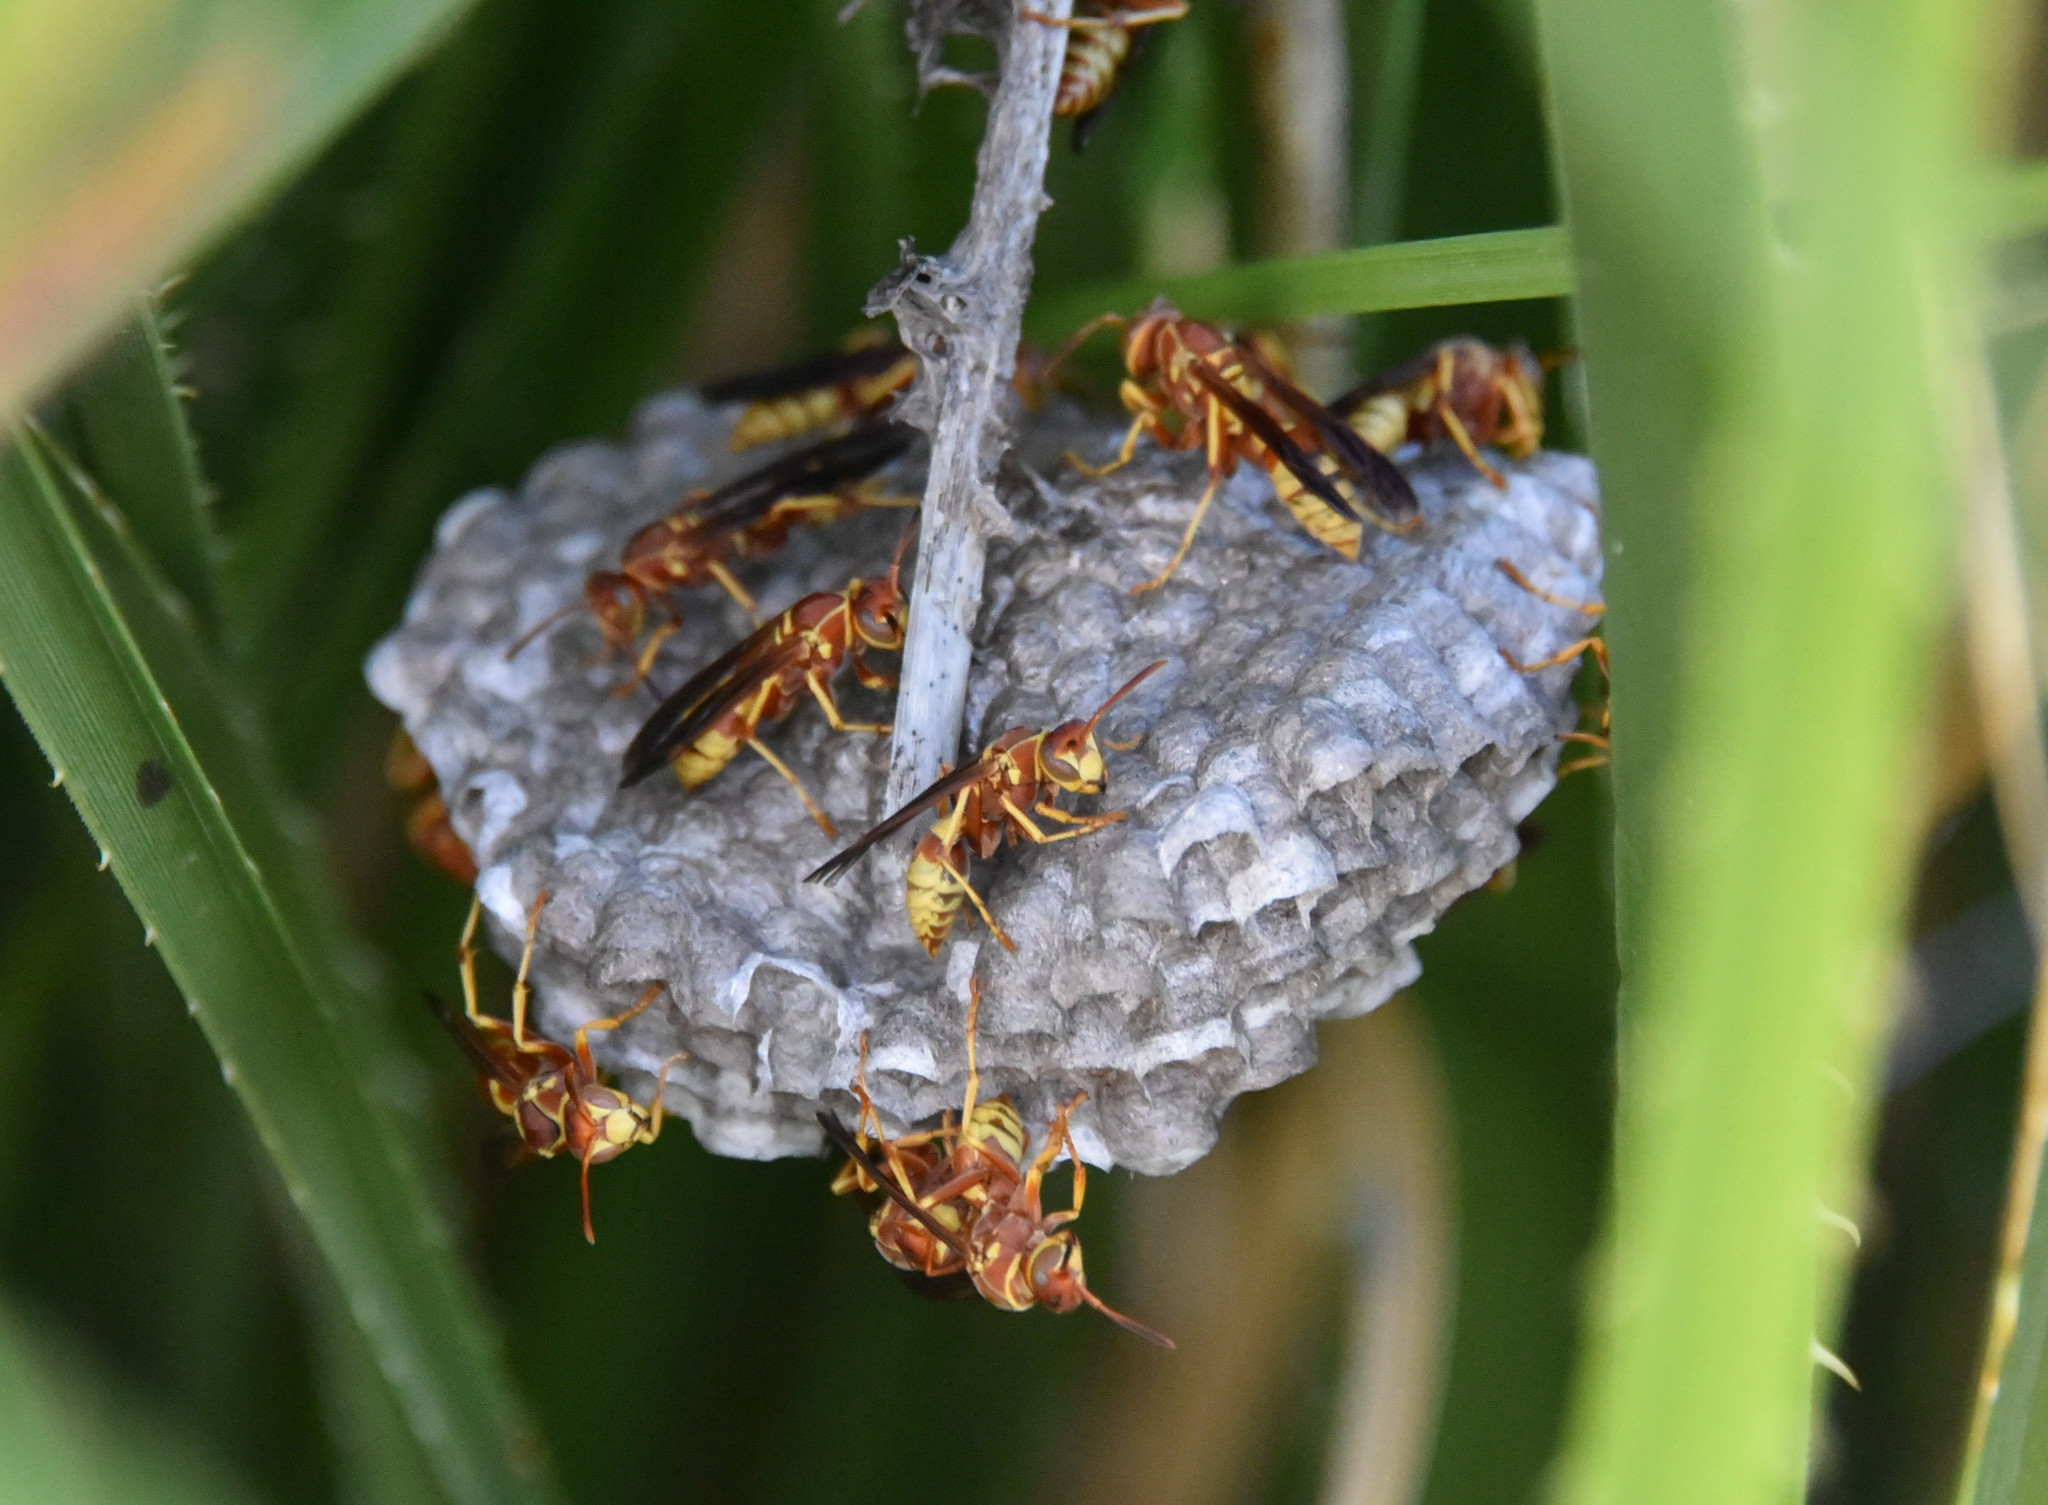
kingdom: Animalia
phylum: Arthropoda
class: Insecta
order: Hymenoptera
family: Eumenidae
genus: Polistes
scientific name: Polistes dorsalis
